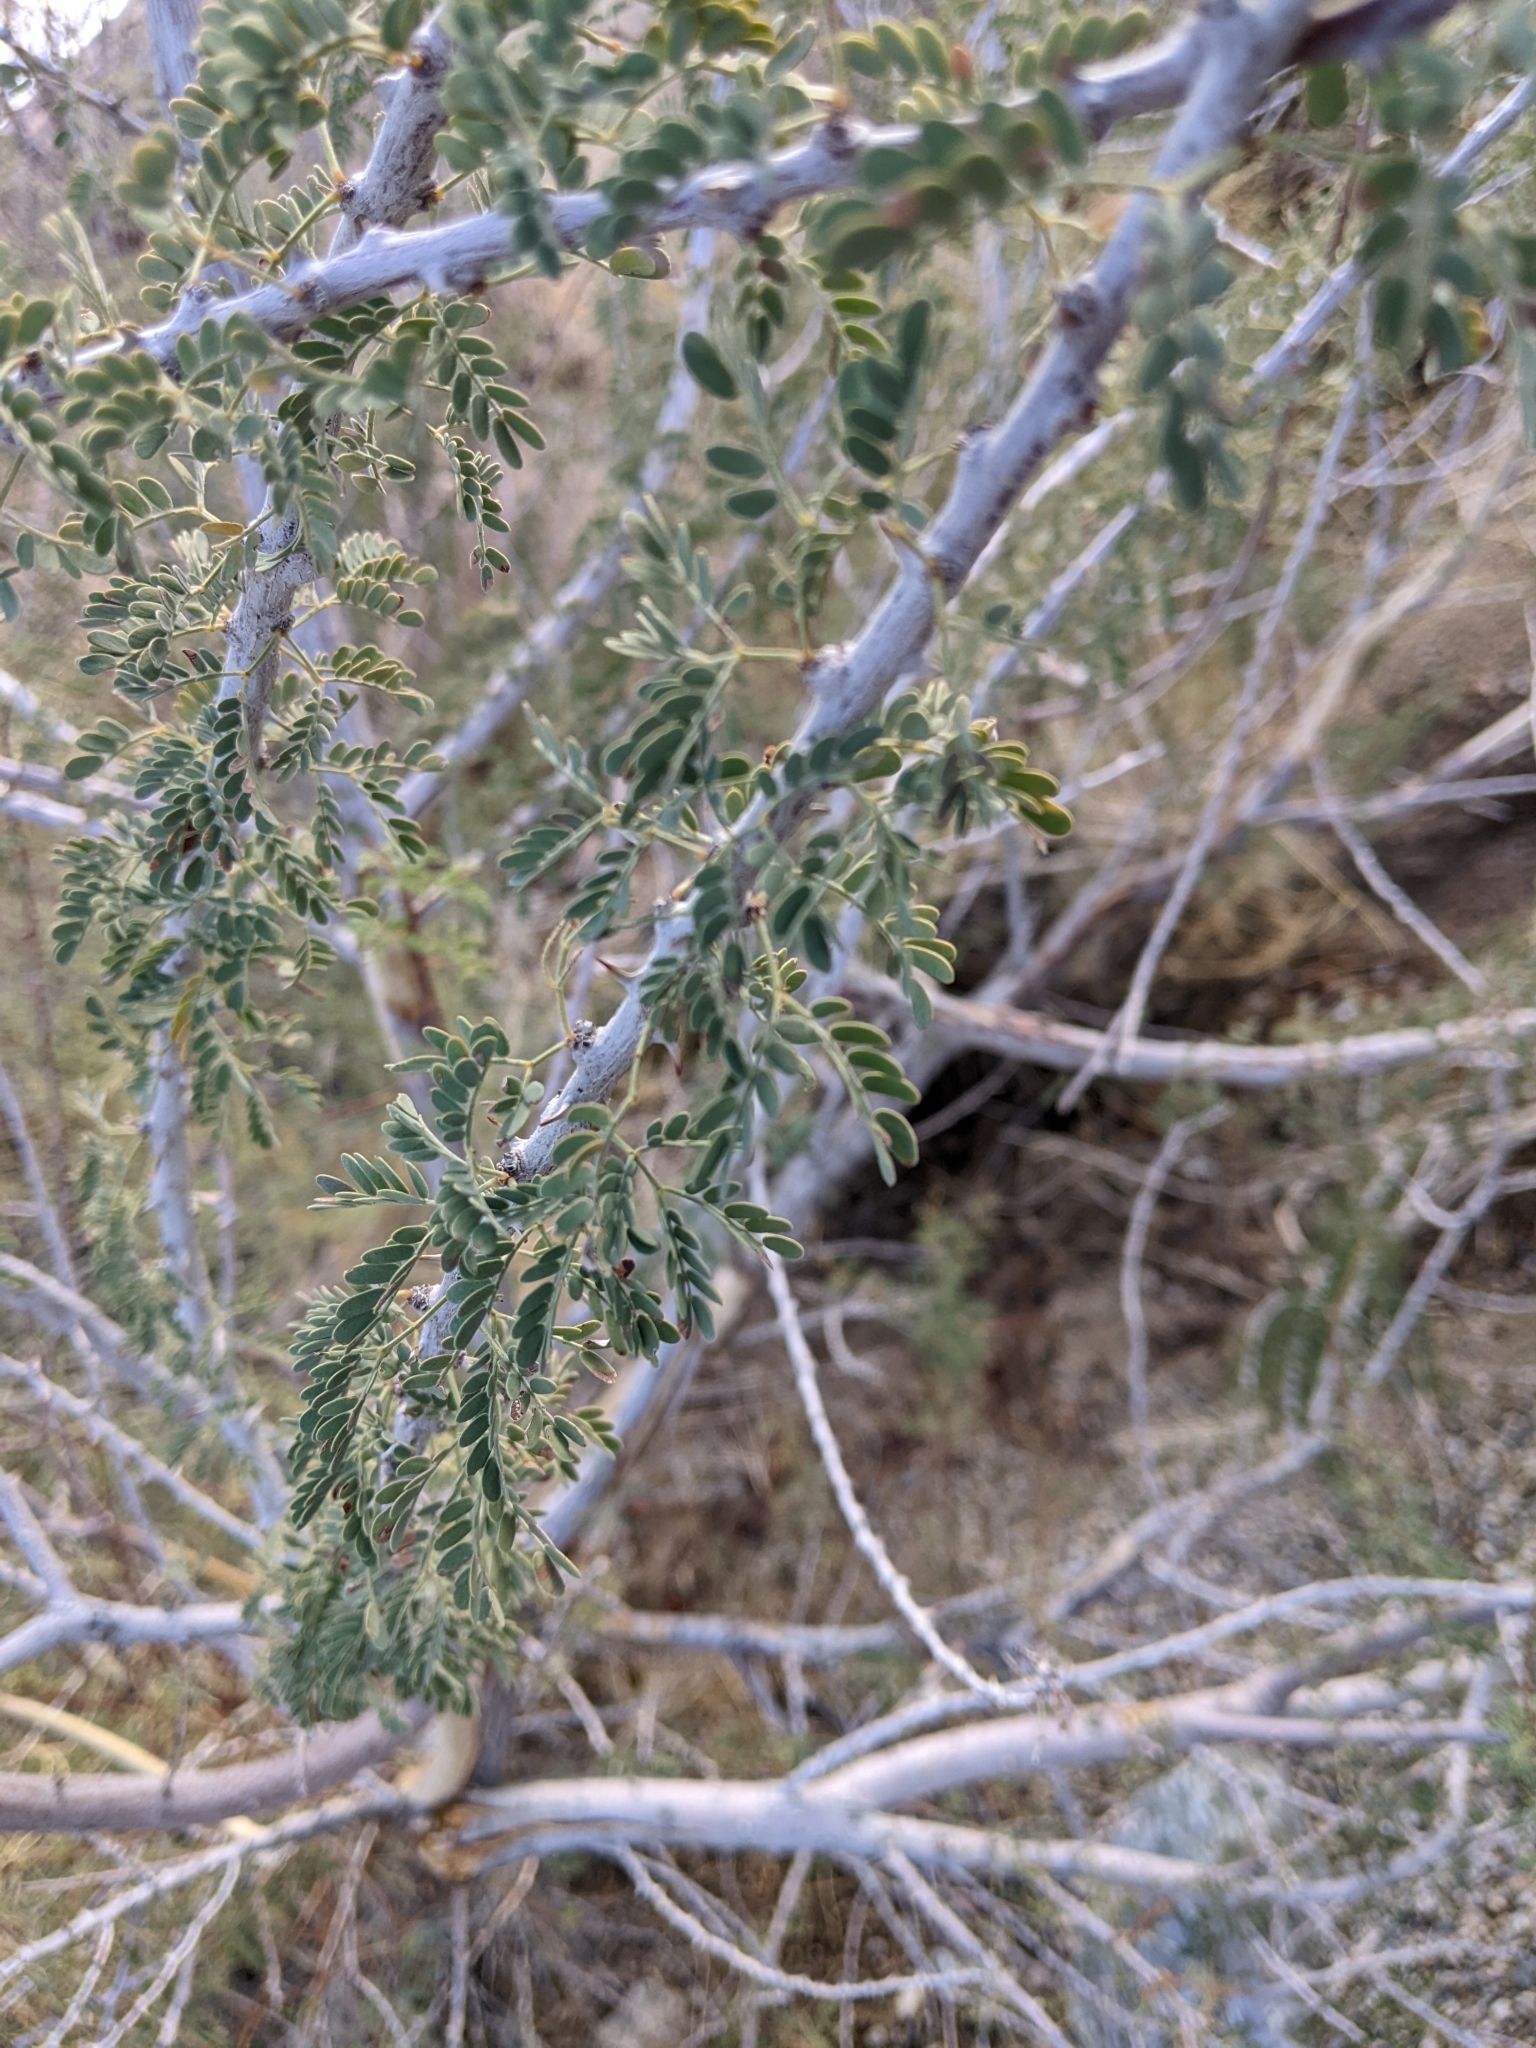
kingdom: Plantae
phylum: Tracheophyta
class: Magnoliopsida
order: Fabales
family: Fabaceae
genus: Senegalia
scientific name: Senegalia greggii
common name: Texas-mimosa
